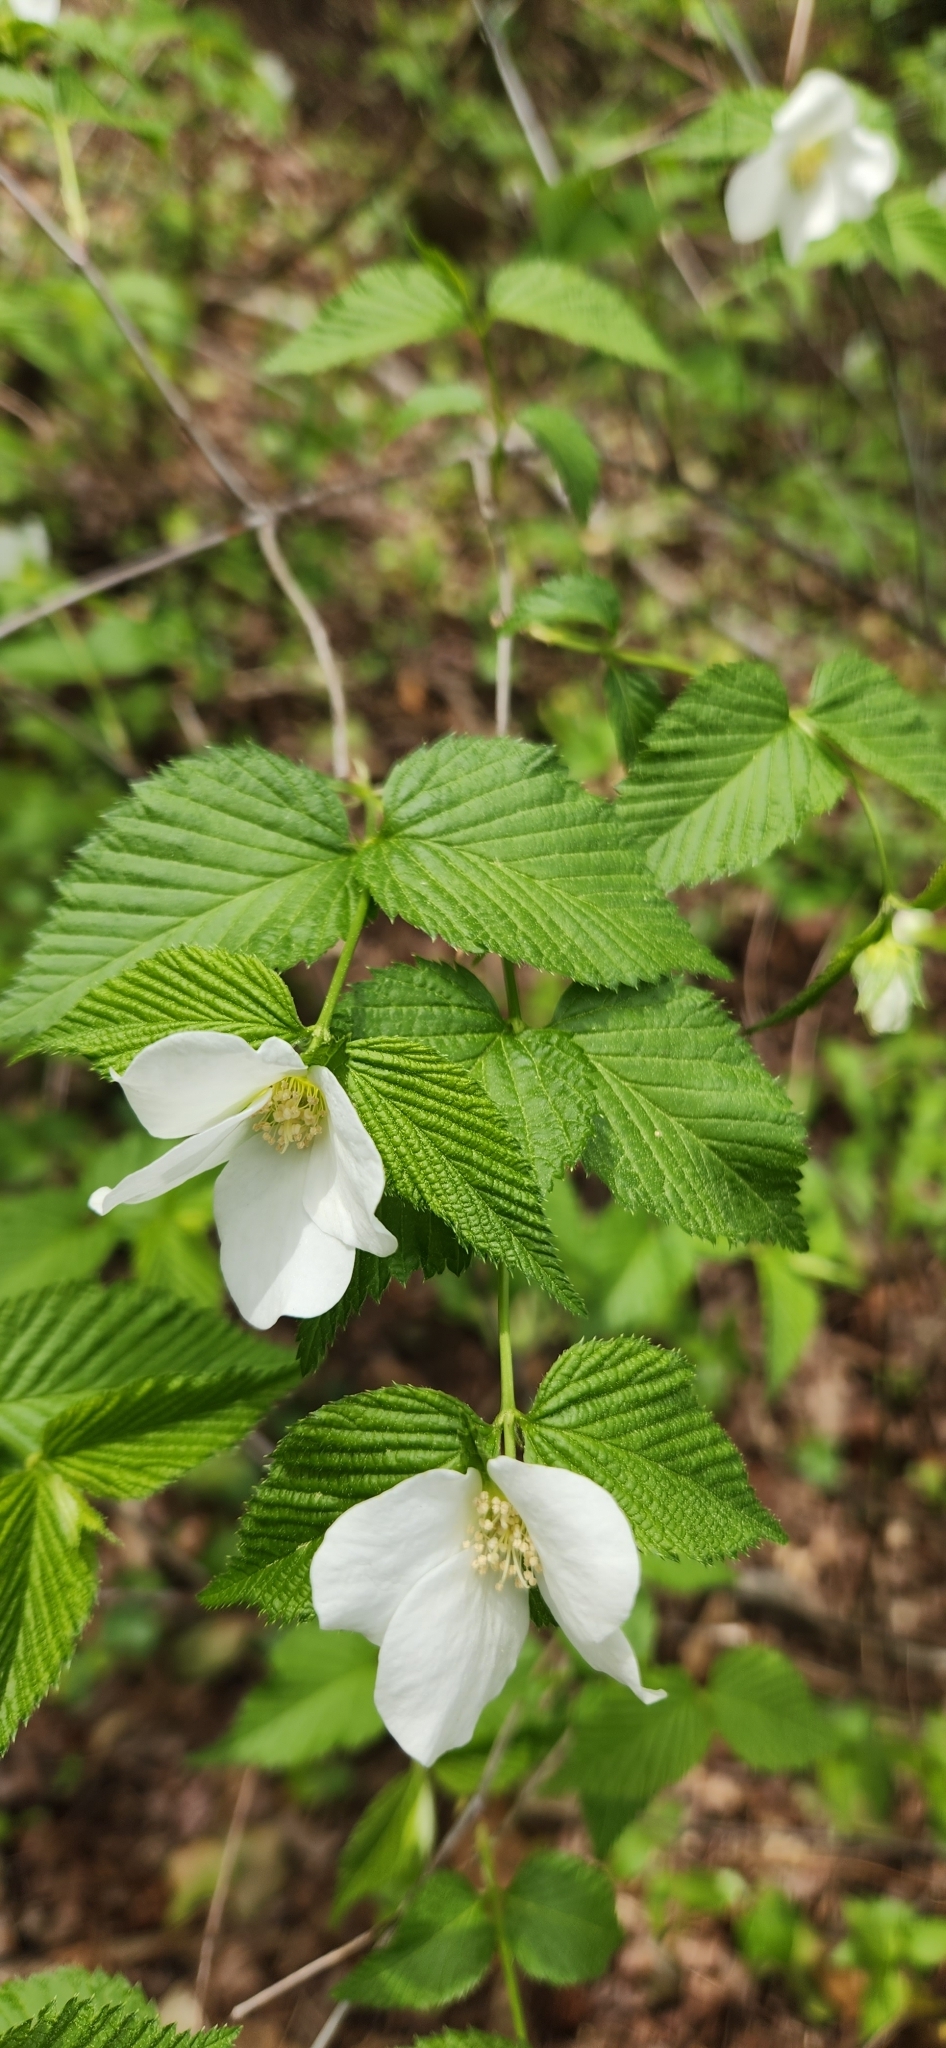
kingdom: Plantae
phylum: Tracheophyta
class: Magnoliopsida
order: Rosales
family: Rosaceae
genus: Rhodotypos
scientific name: Rhodotypos scandens
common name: Jetbead
